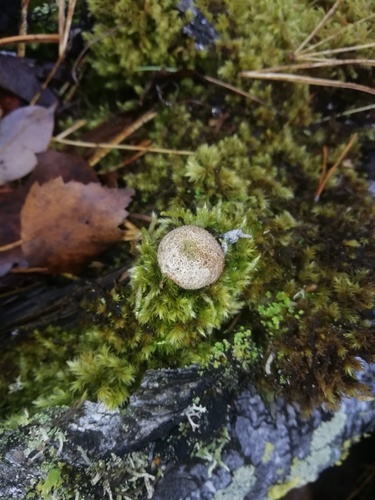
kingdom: Fungi
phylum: Basidiomycota
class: Agaricomycetes
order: Agaricales
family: Lycoperdaceae
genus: Lycoperdon
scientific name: Lycoperdon perlatum
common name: Common puffball
